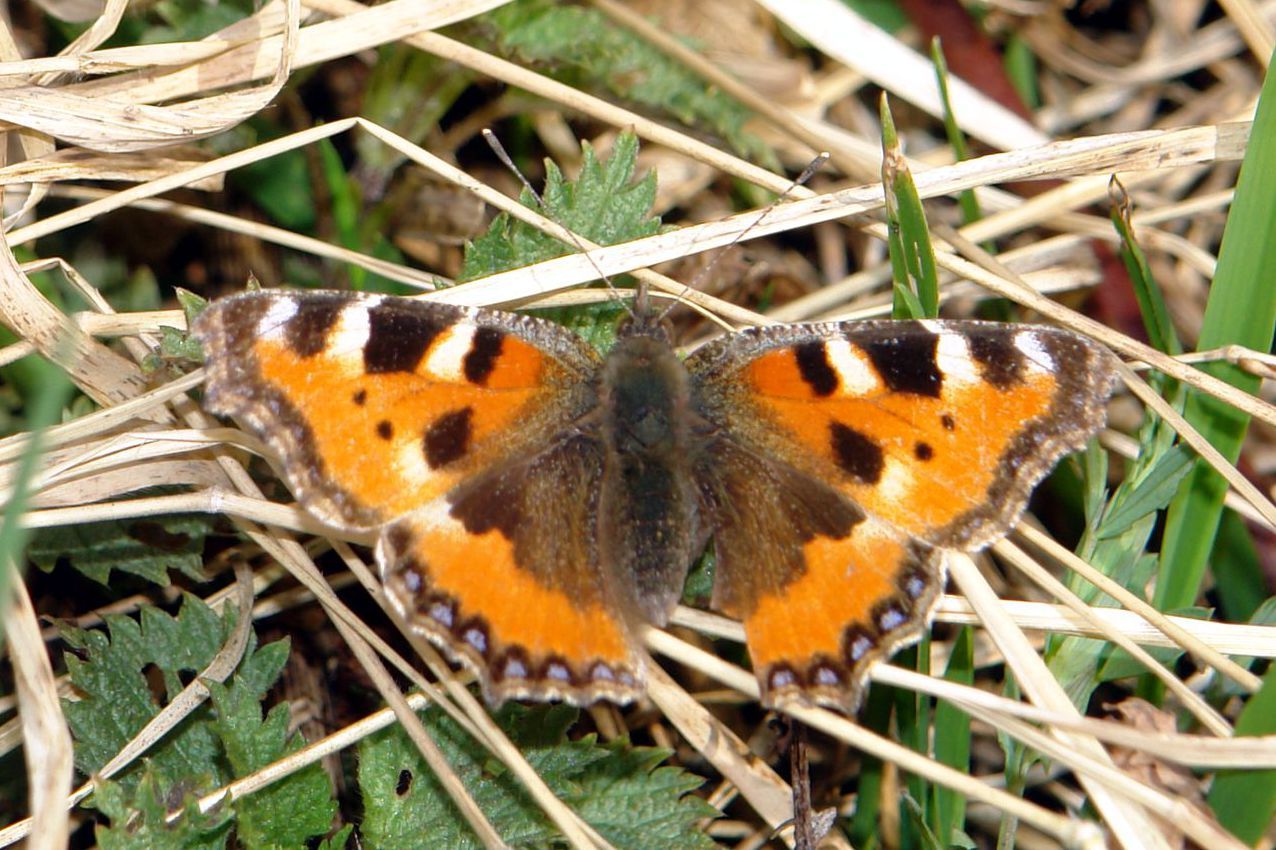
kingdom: Animalia
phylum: Arthropoda
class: Insecta
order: Lepidoptera
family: Nymphalidae
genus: Aglais
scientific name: Aglais urticae
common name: Small tortoiseshell
